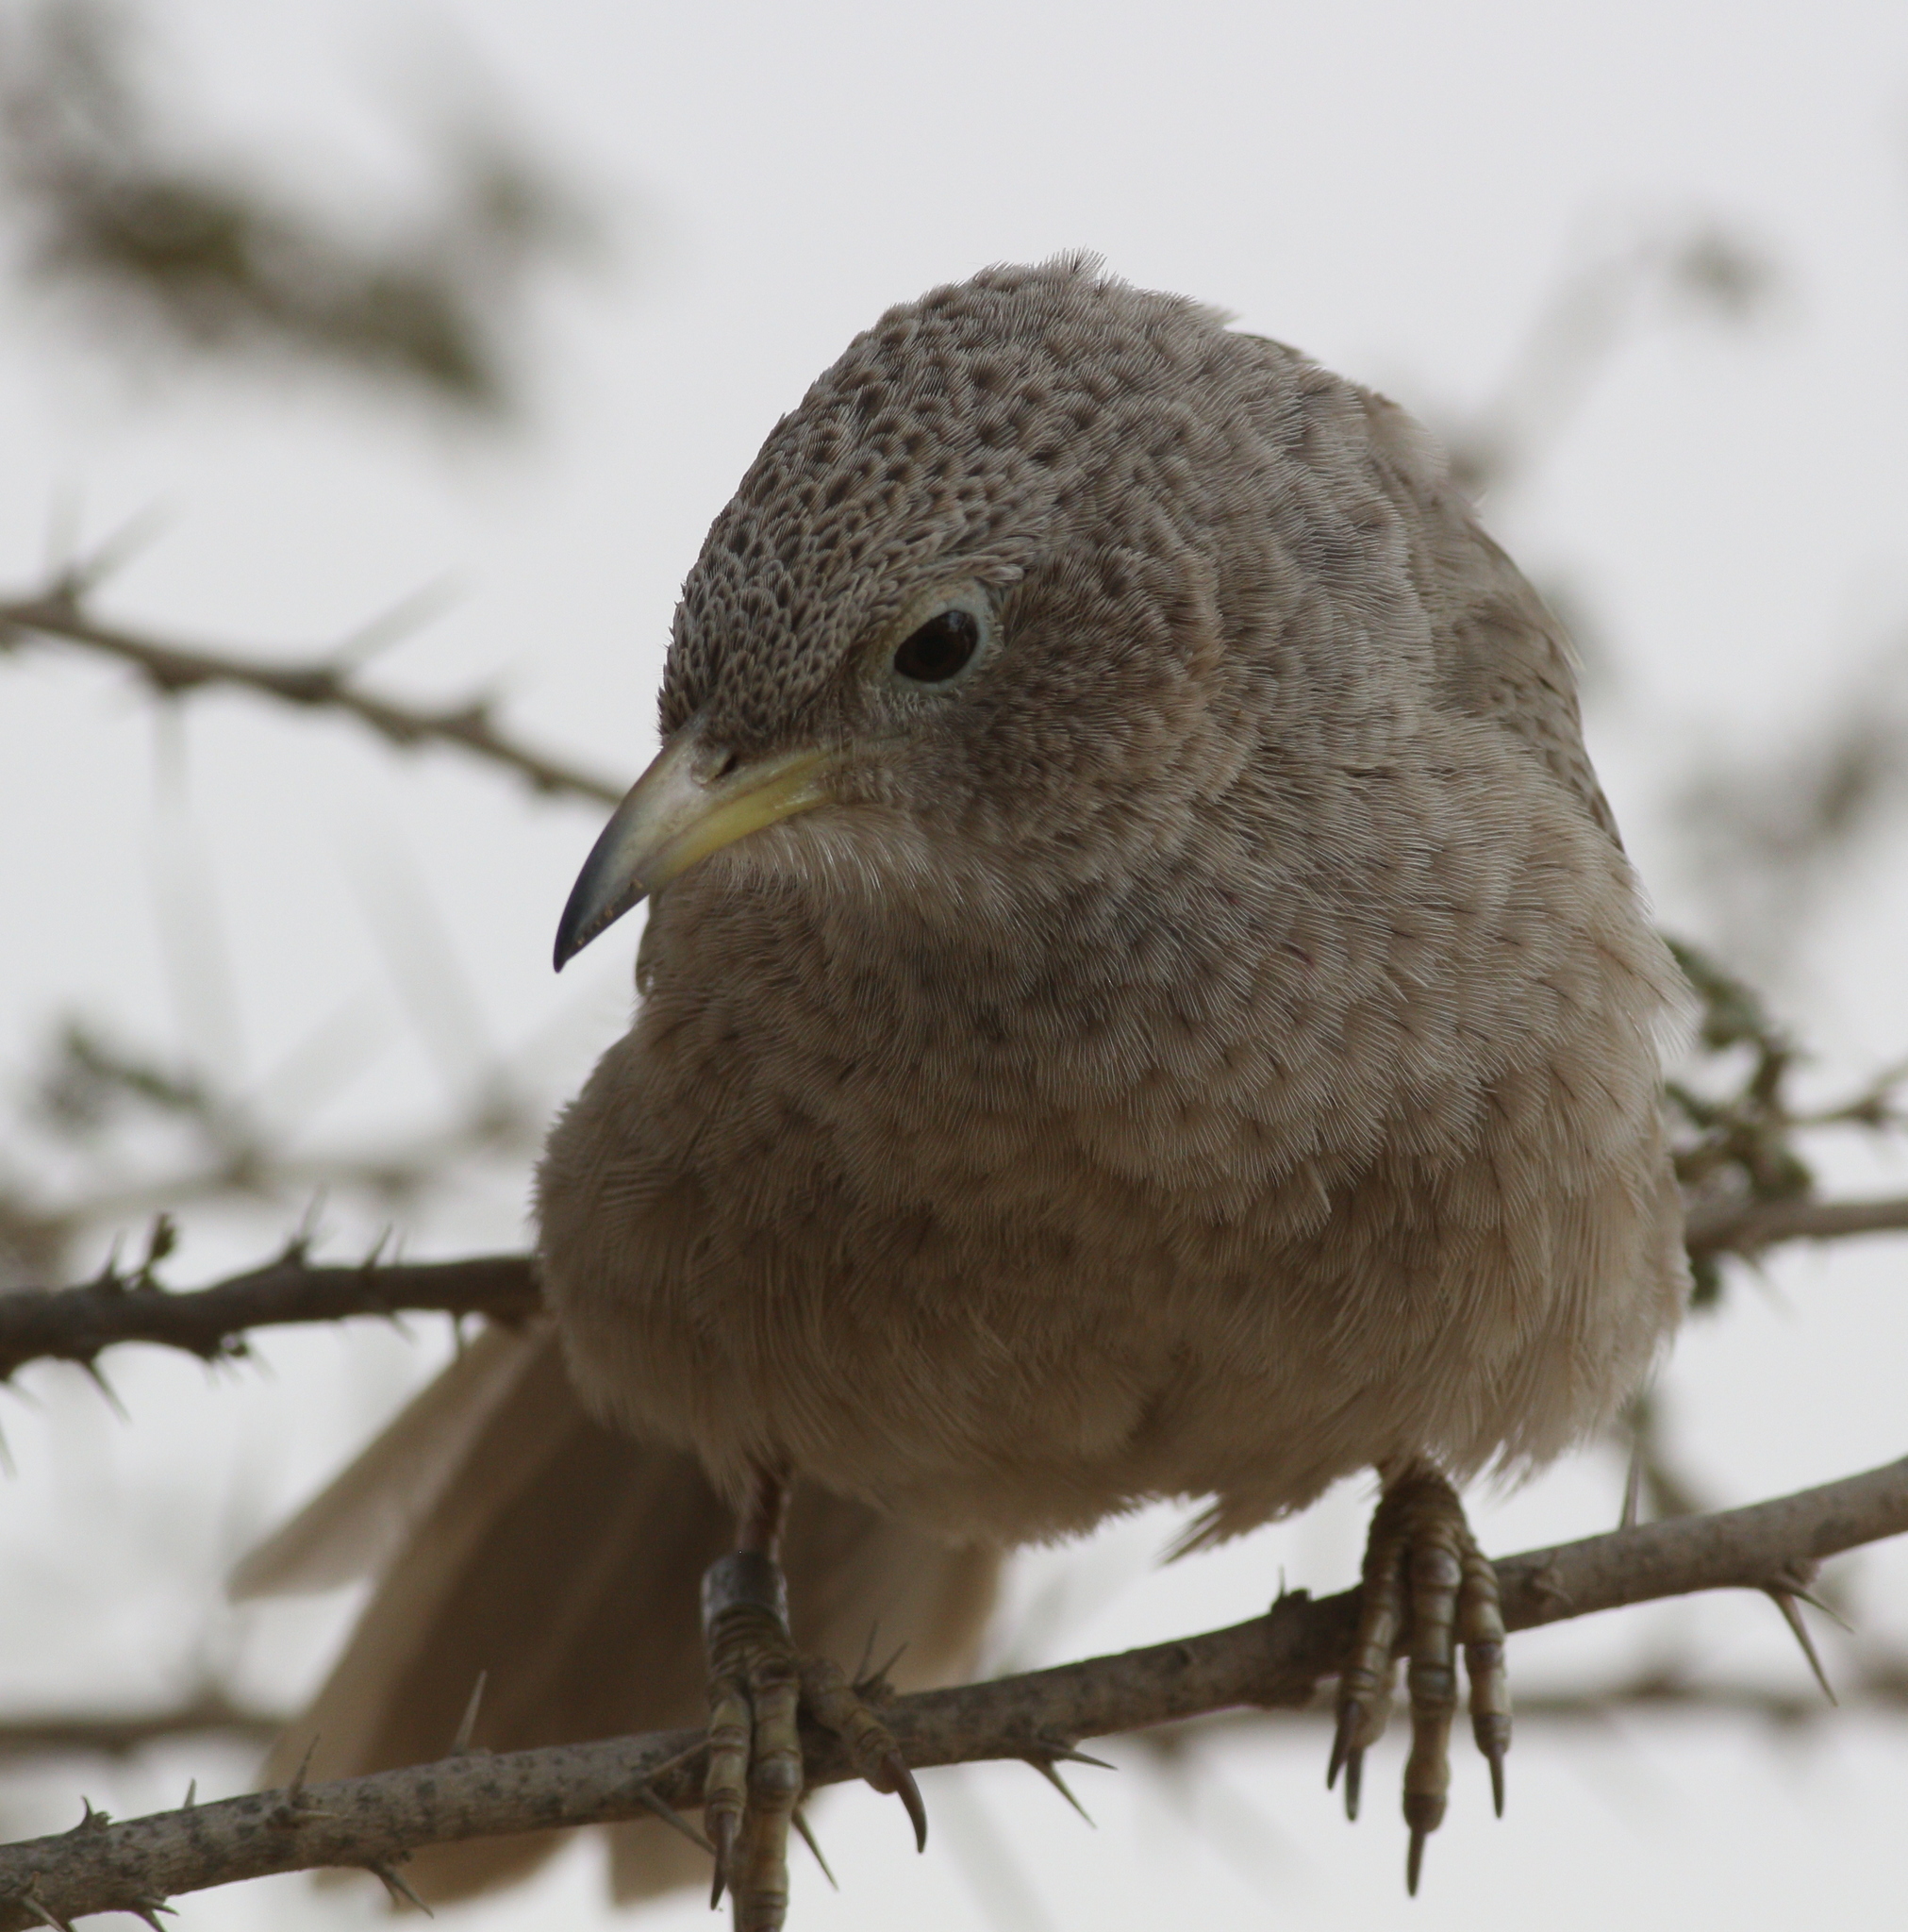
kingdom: Animalia
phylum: Chordata
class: Aves
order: Passeriformes
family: Leiothrichidae
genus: Turdoides
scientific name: Turdoides squamiceps
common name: Arabian babbler
